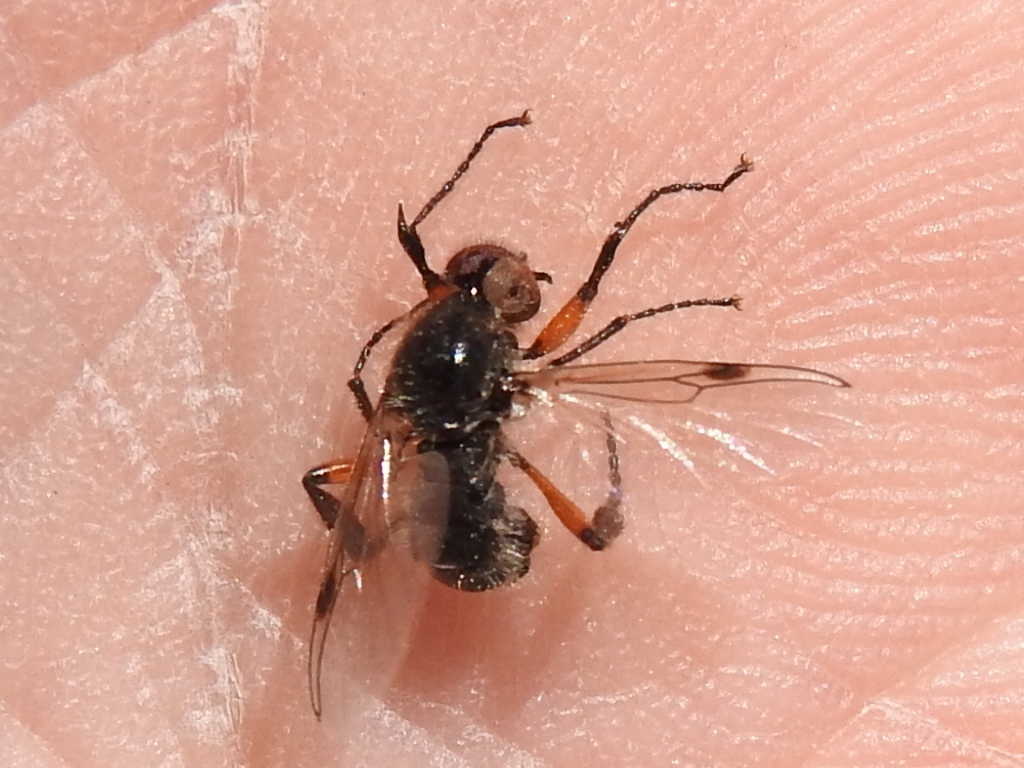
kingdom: Animalia
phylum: Arthropoda
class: Insecta
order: Diptera
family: Bibionidae
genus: Bibio
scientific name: Bibio alienus
